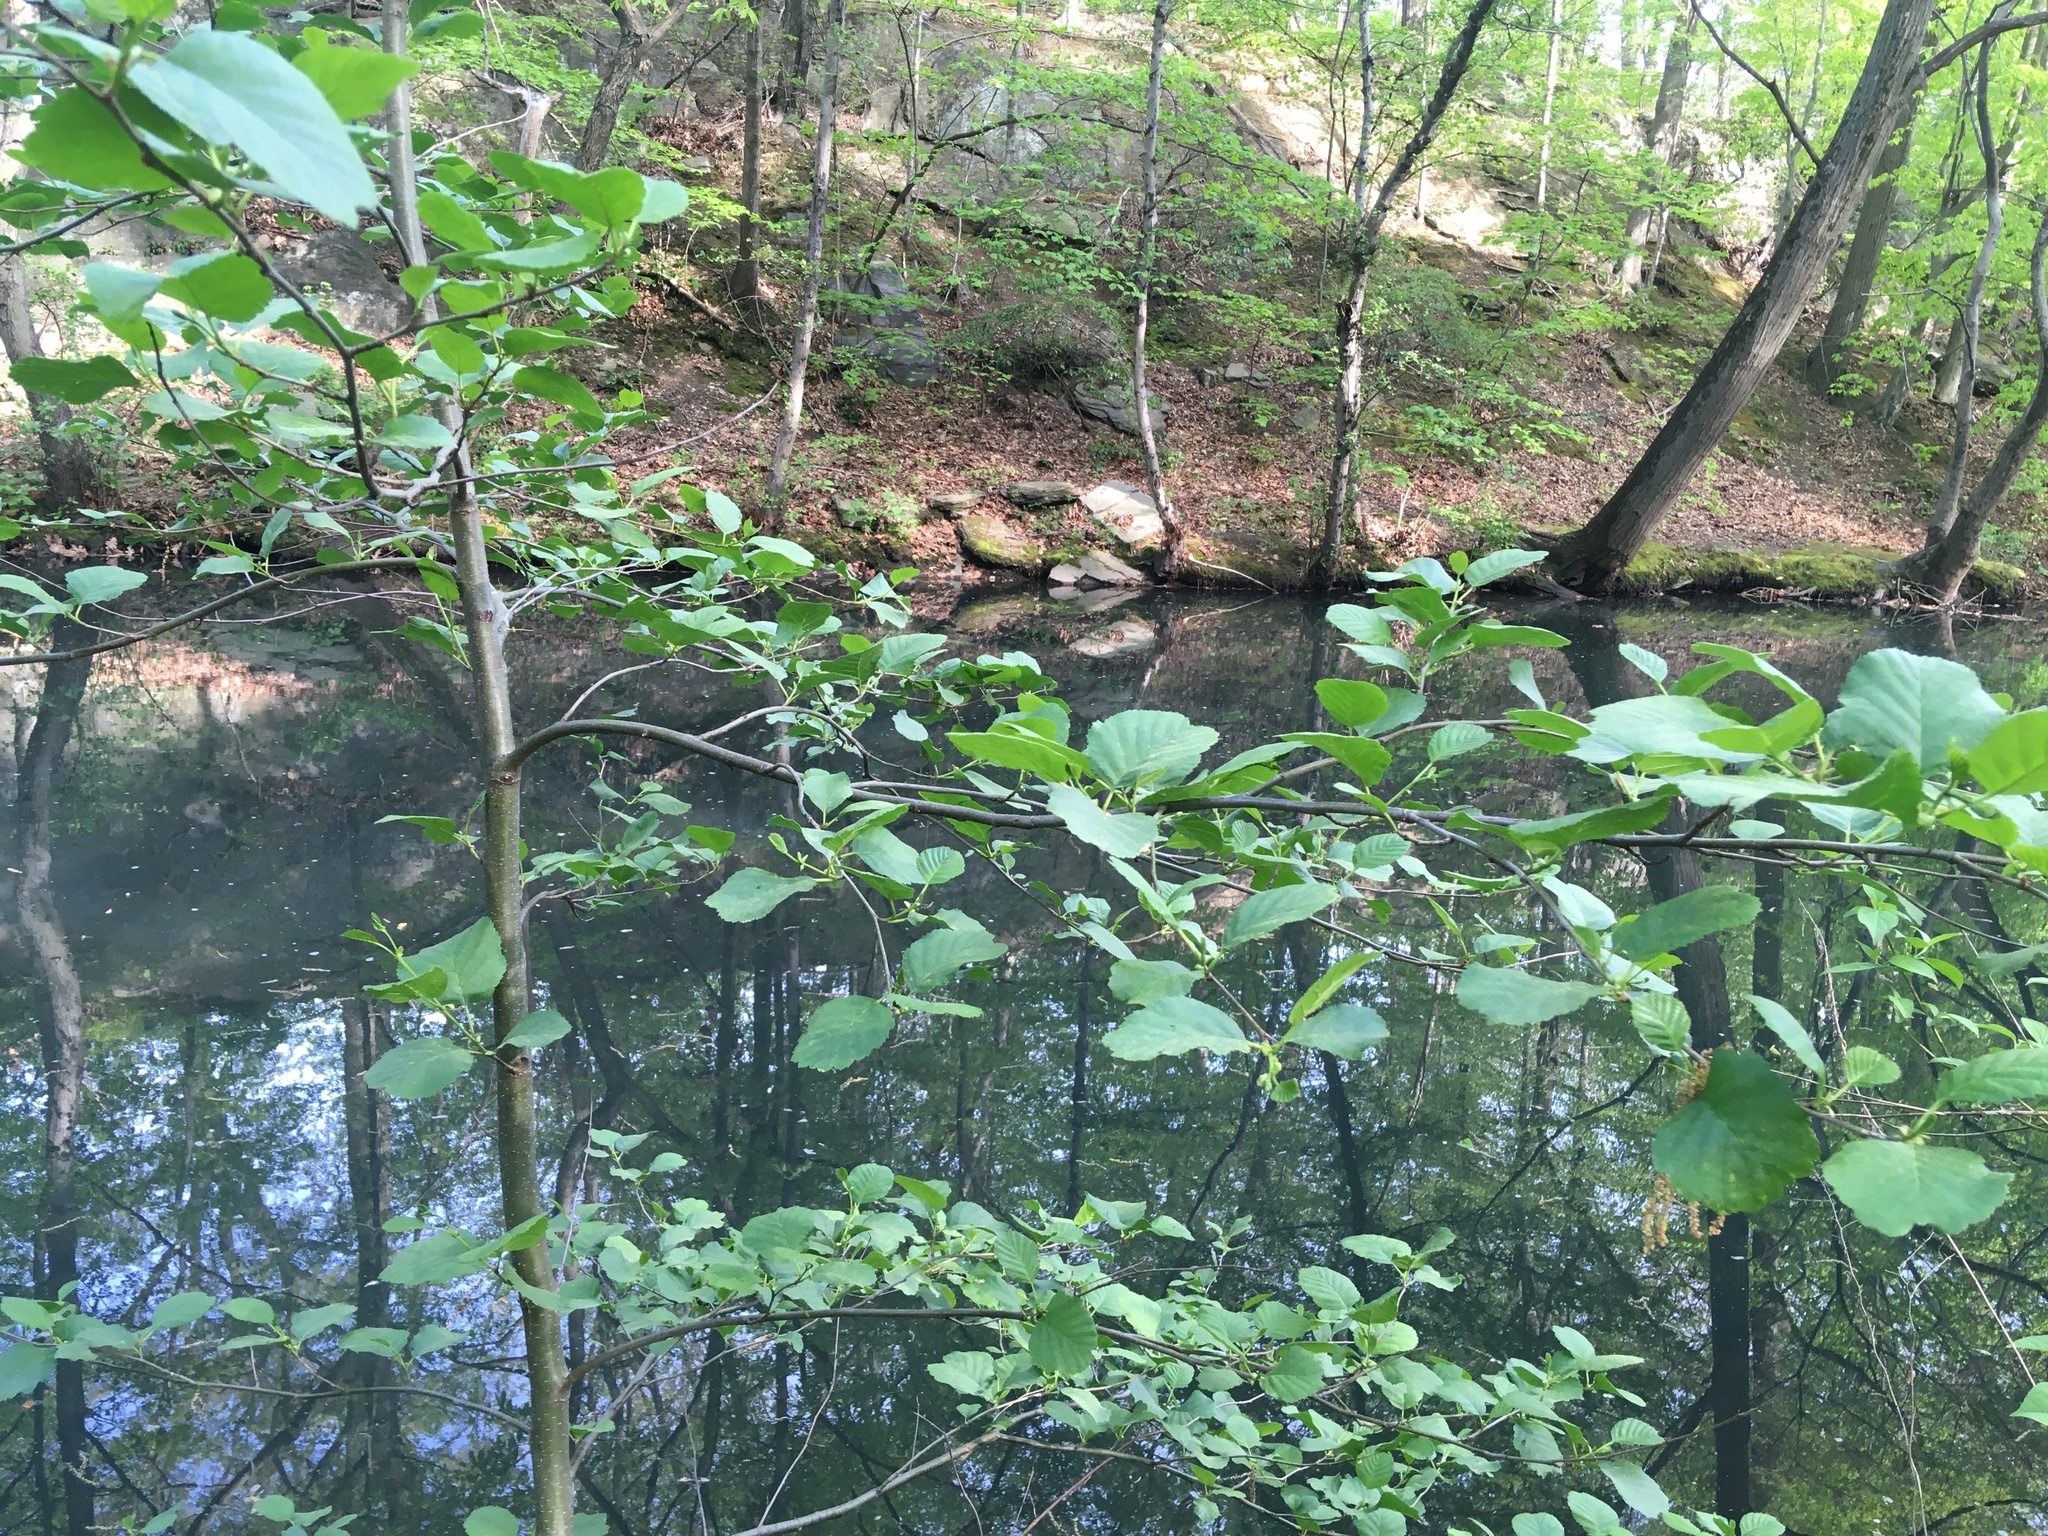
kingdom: Plantae
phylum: Tracheophyta
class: Magnoliopsida
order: Fagales
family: Betulaceae
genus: Alnus
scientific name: Alnus glutinosa
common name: Black alder
